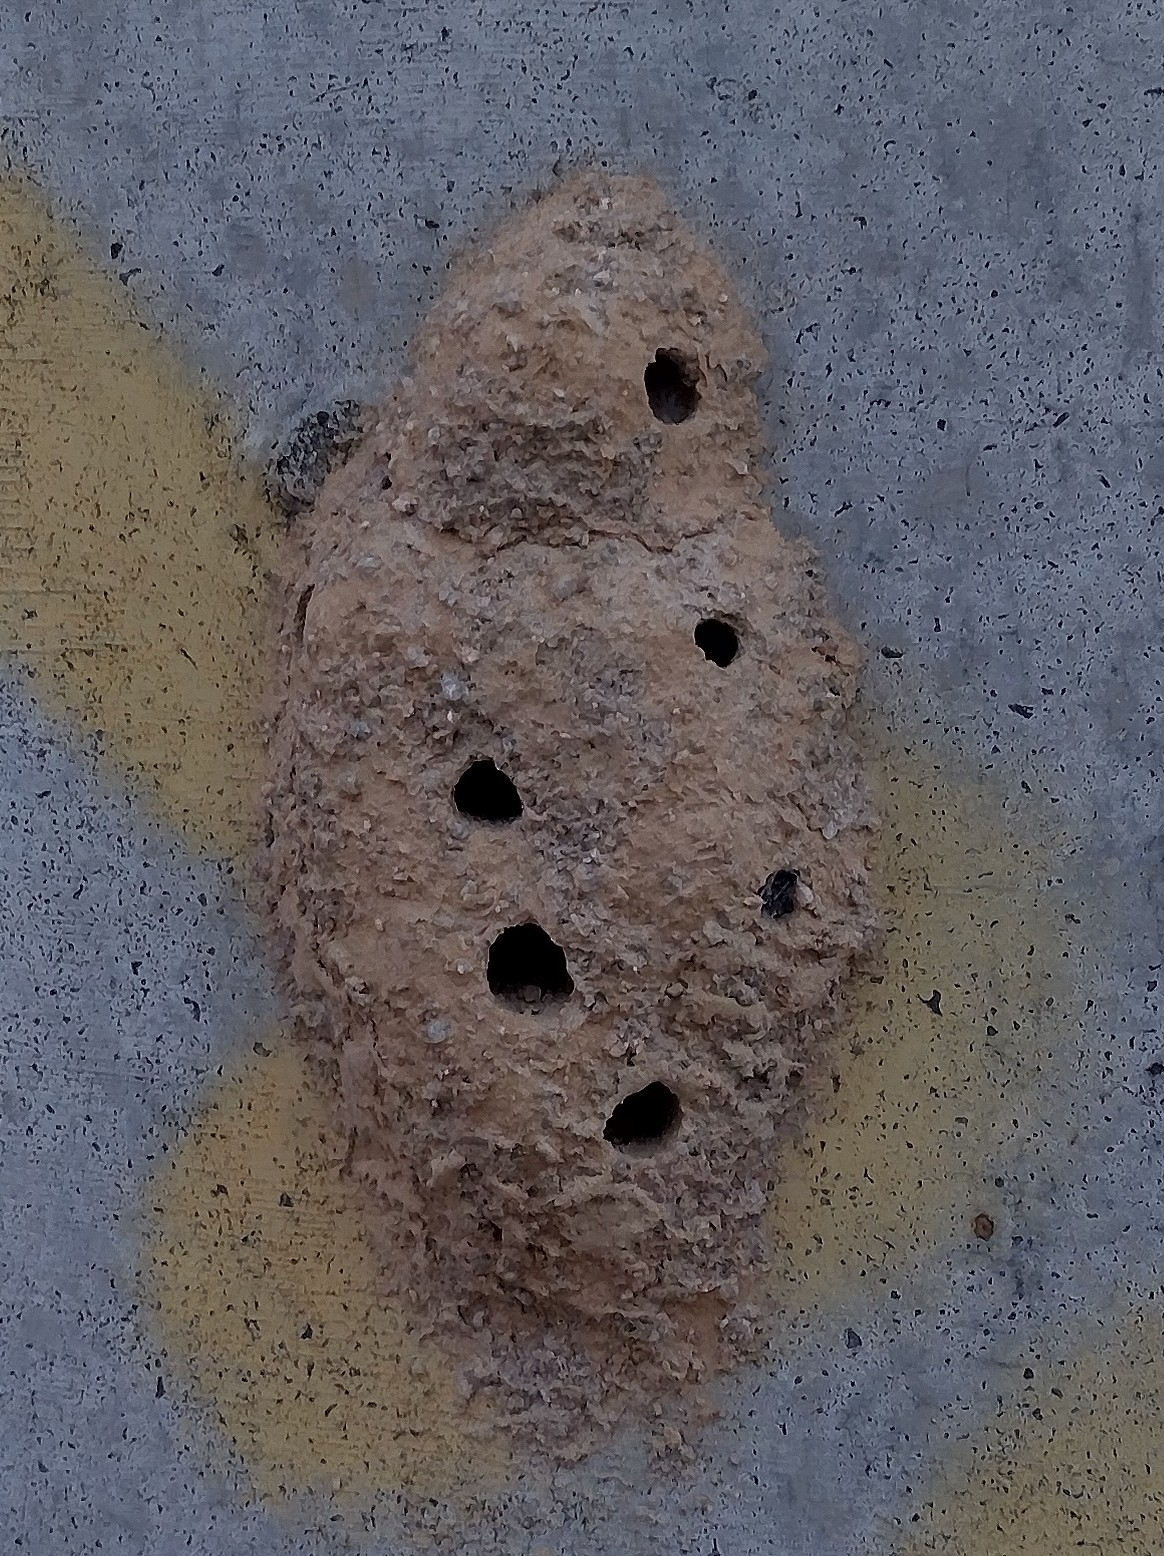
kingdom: Animalia
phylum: Arthropoda
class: Insecta
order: Hymenoptera
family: Eumenidae
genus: Delta
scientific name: Delta unguiculatum
